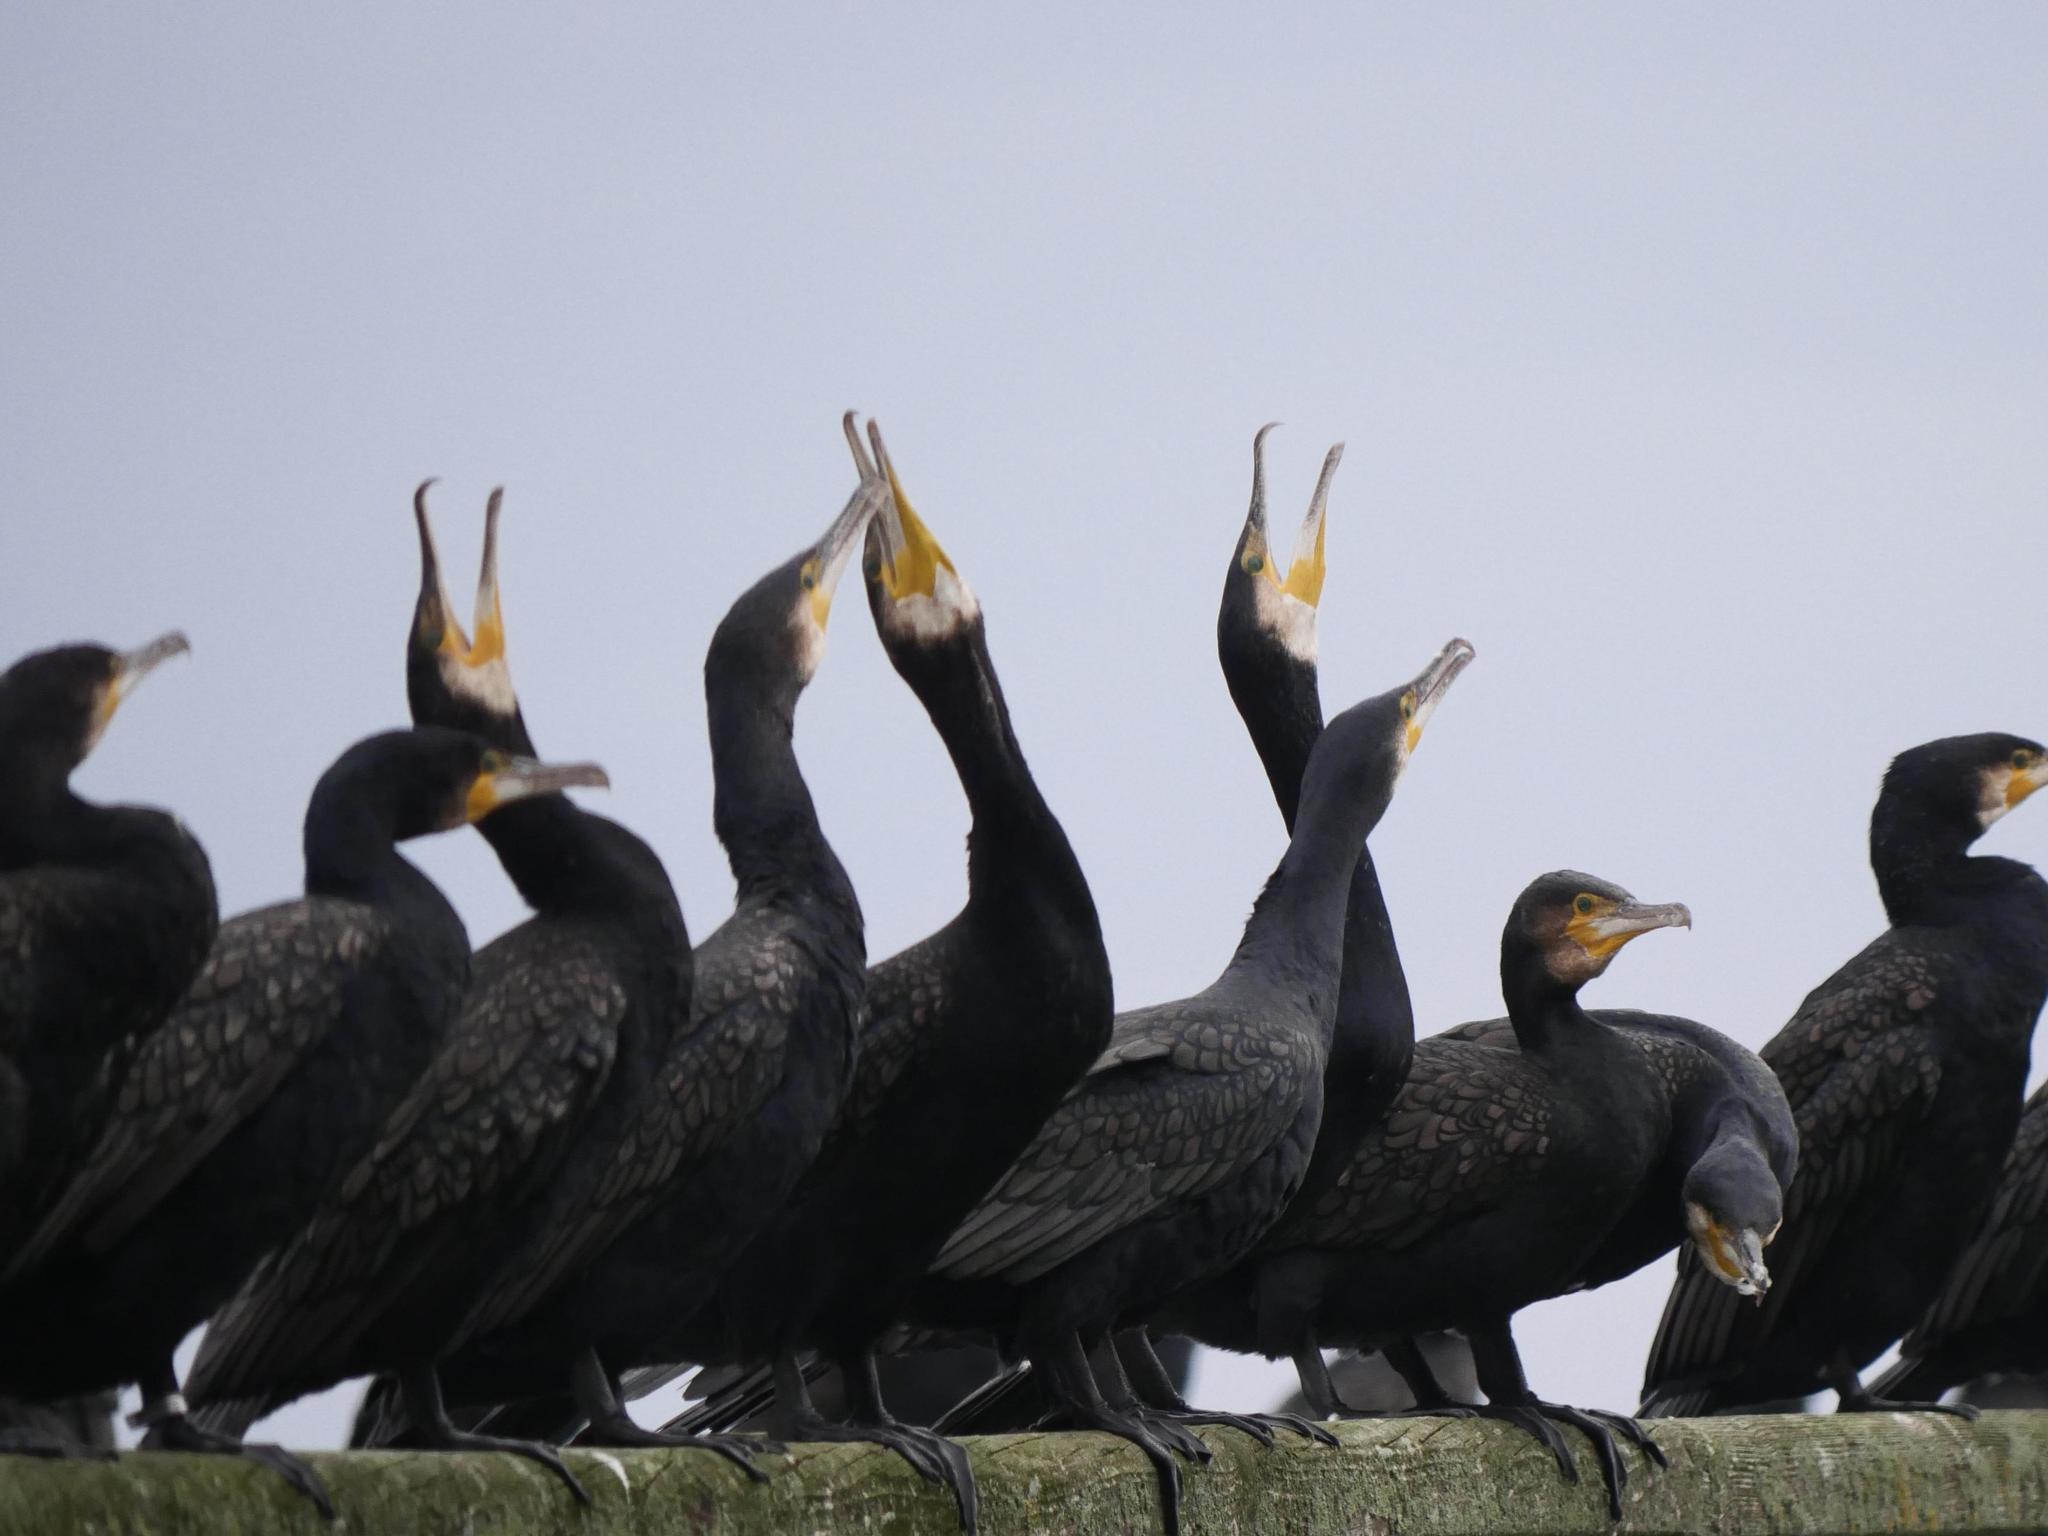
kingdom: Animalia
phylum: Chordata
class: Aves
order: Suliformes
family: Phalacrocoracidae
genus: Phalacrocorax
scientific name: Phalacrocorax carbo
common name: Great cormorant
